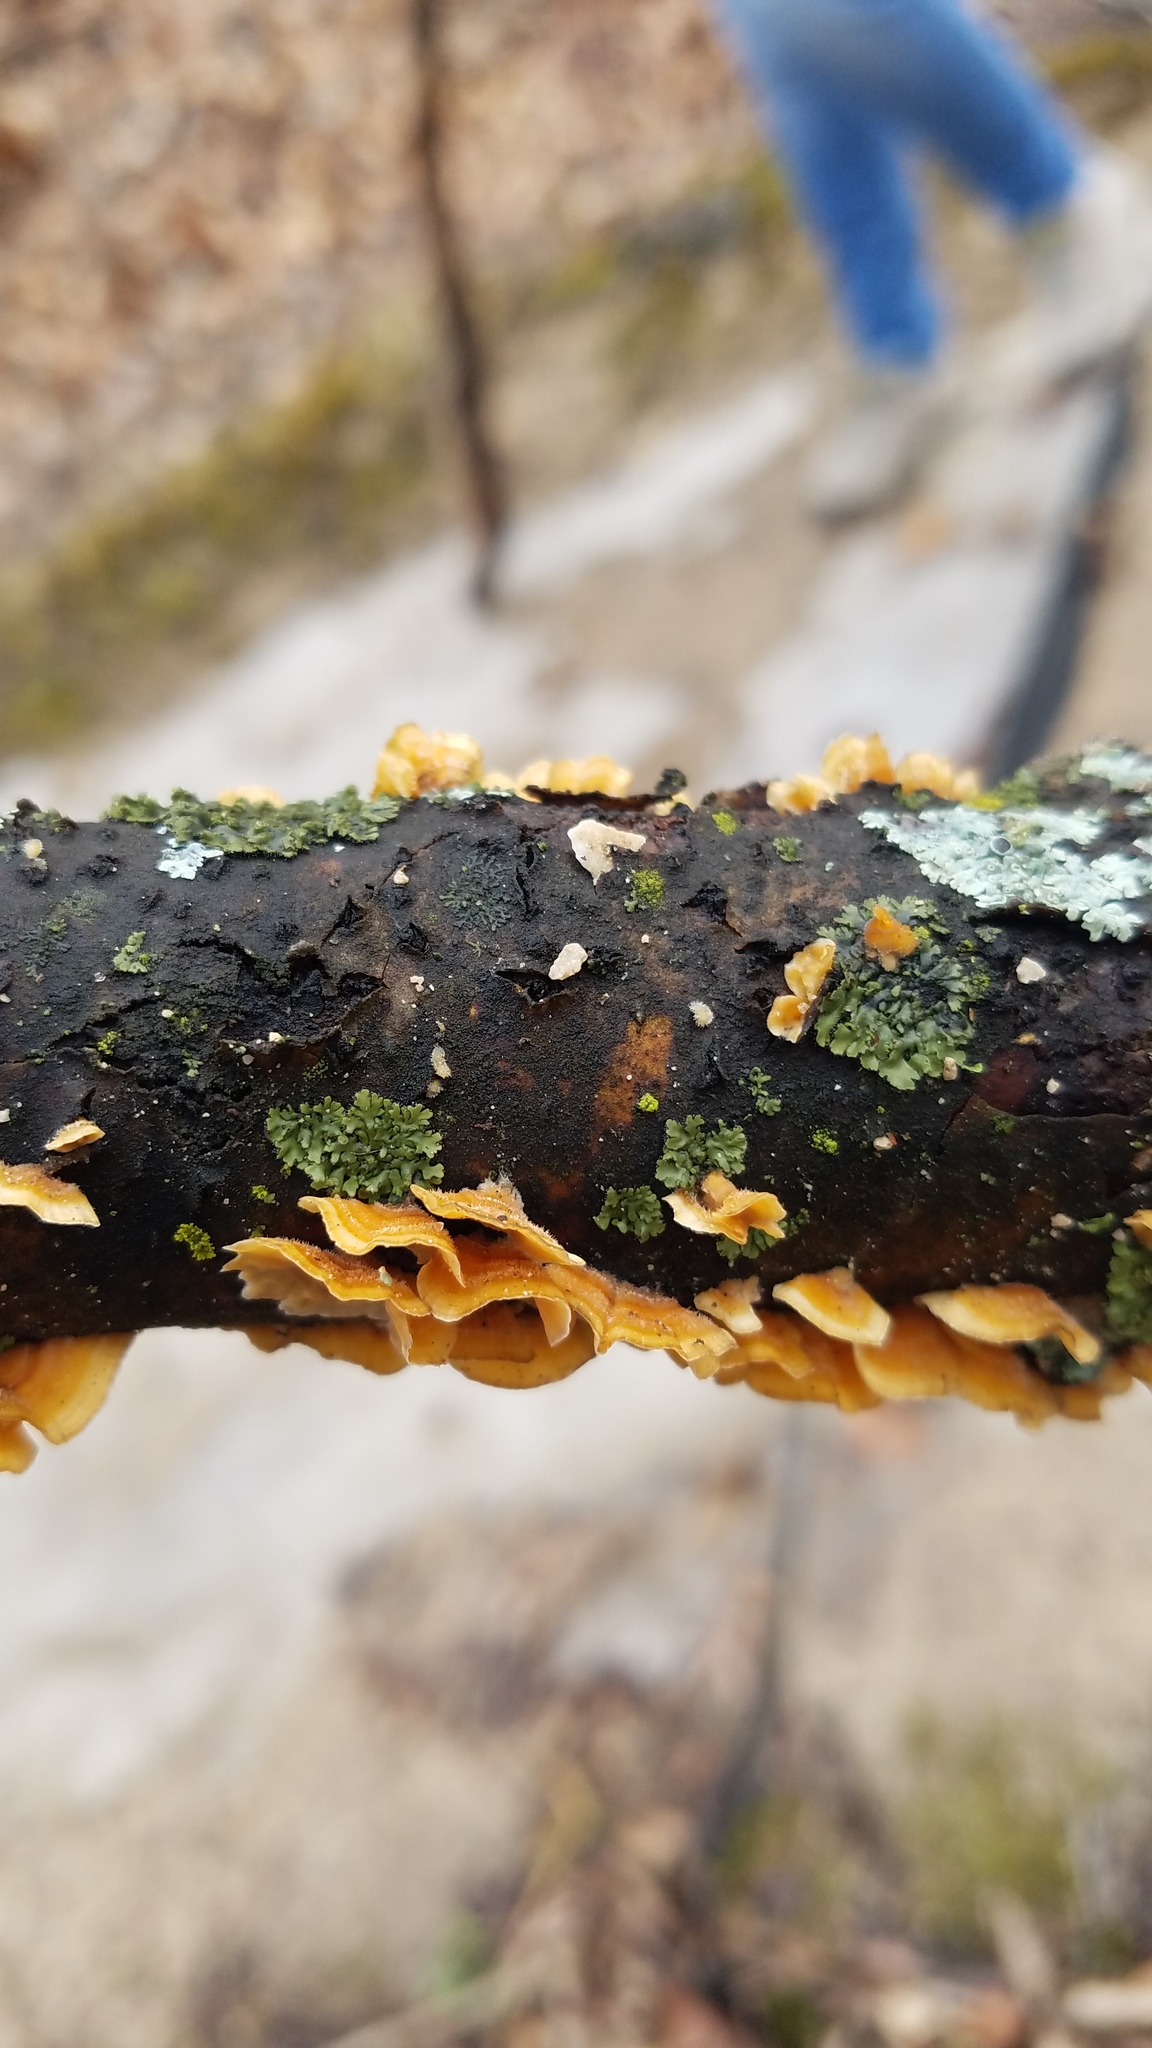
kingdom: Fungi
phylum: Basidiomycota
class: Agaricomycetes
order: Russulales
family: Stereaceae
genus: Stereum
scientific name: Stereum complicatum
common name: Crowded parchment
